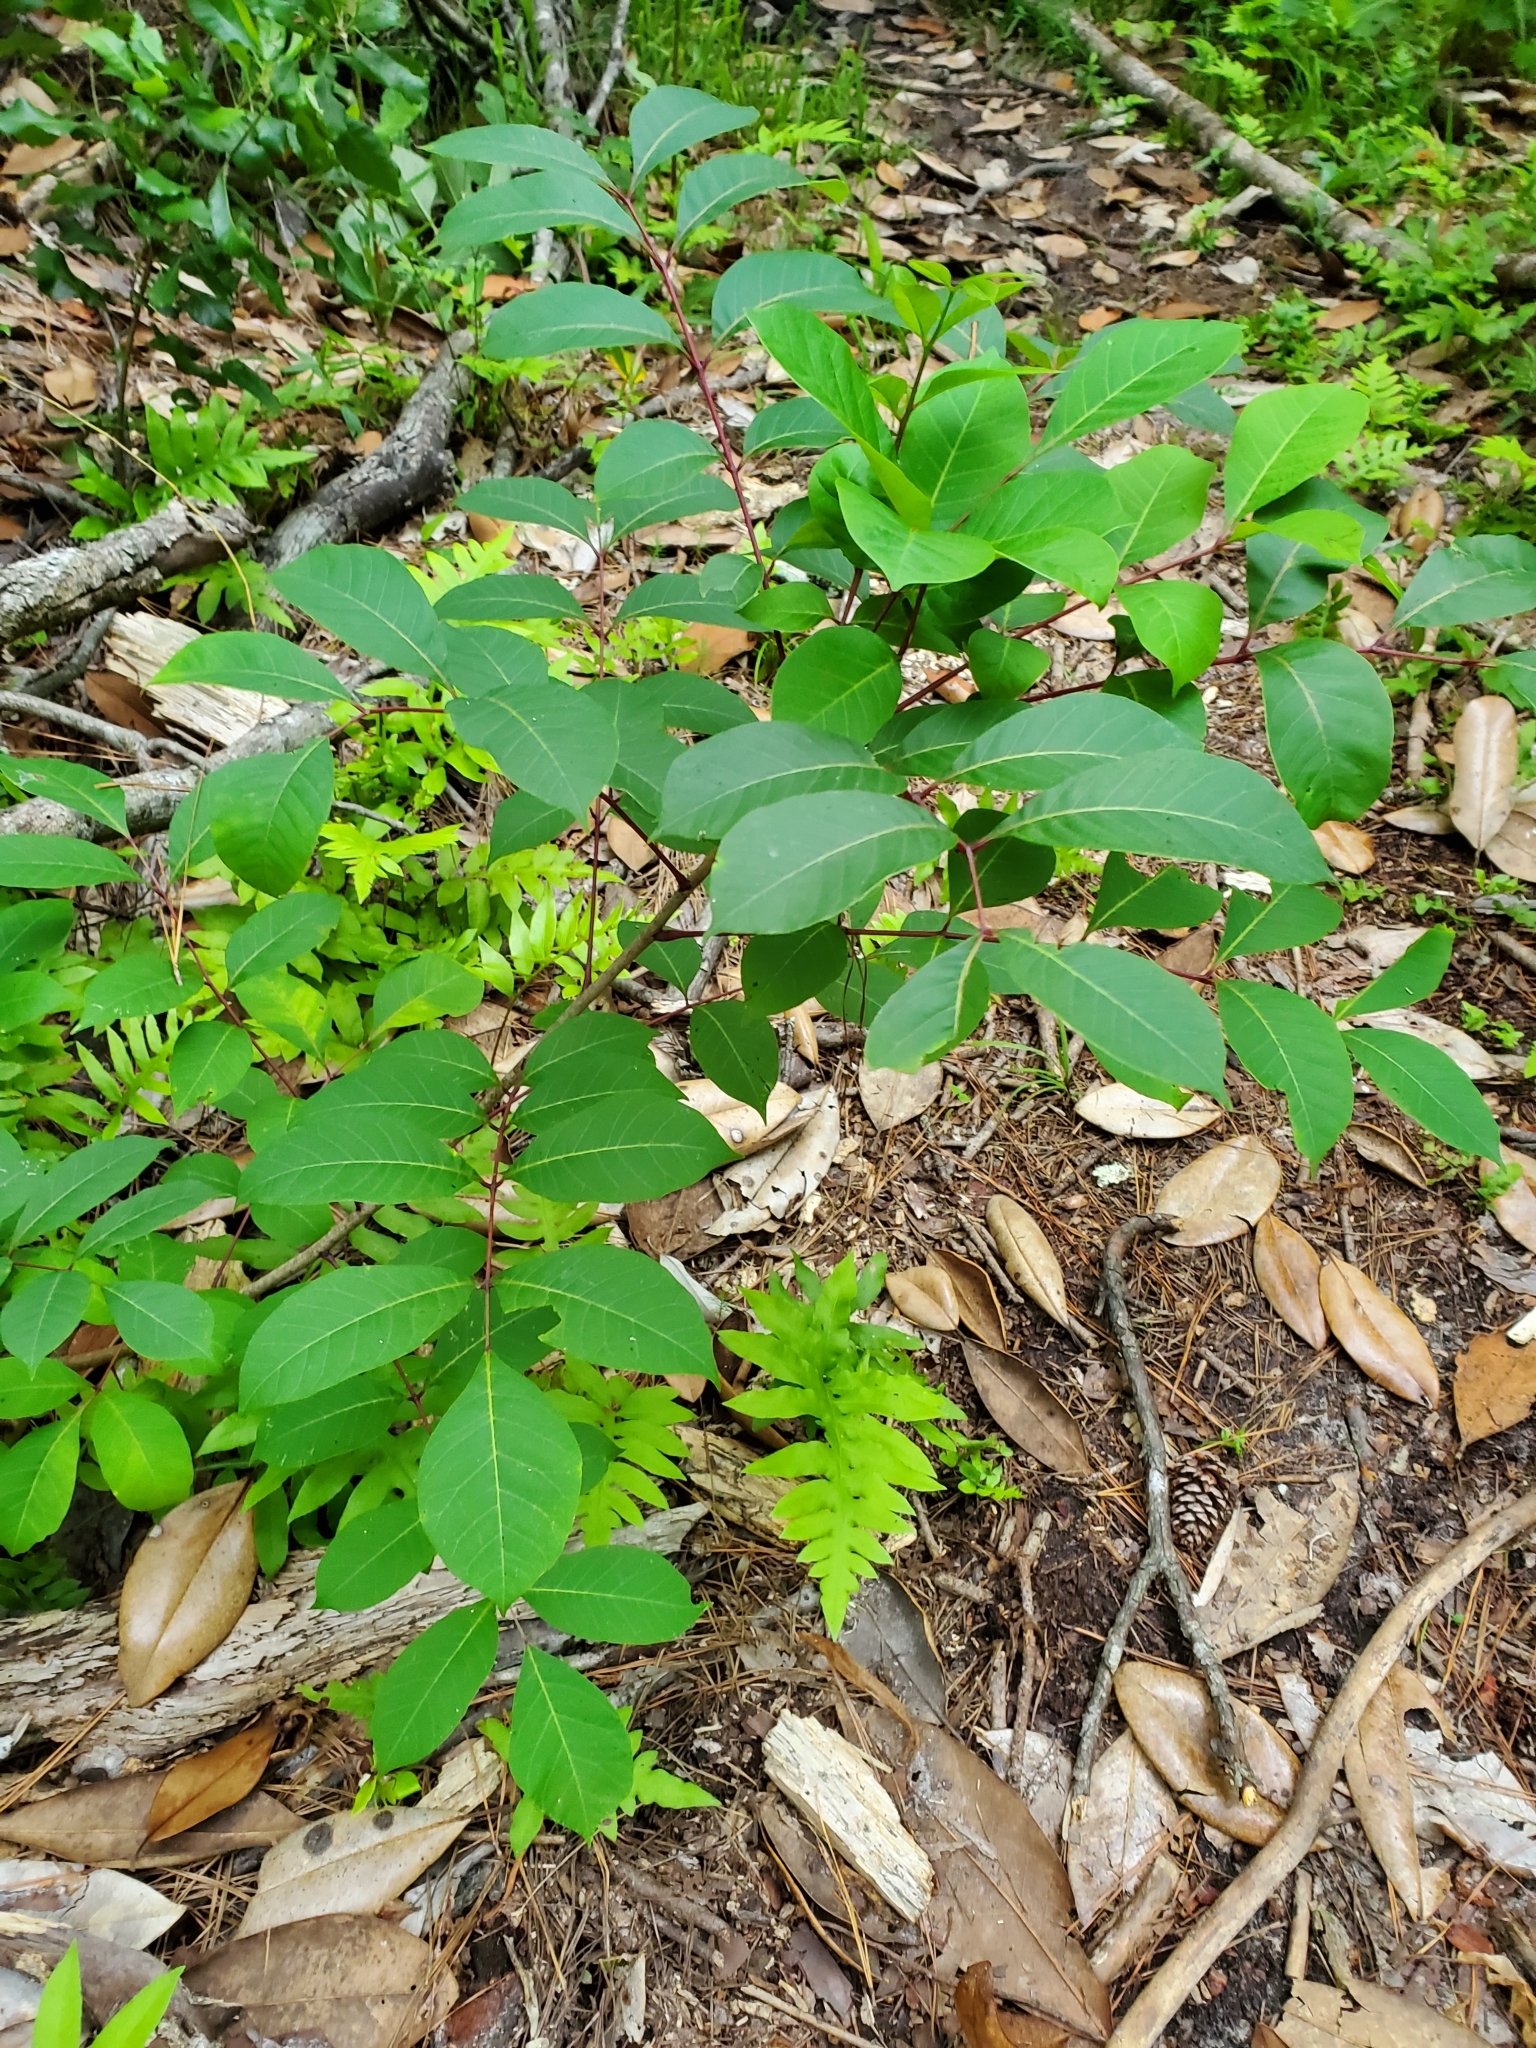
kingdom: Plantae
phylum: Tracheophyta
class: Magnoliopsida
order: Sapindales
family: Anacardiaceae
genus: Toxicodendron
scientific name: Toxicodendron vernix
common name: Poison sumac
